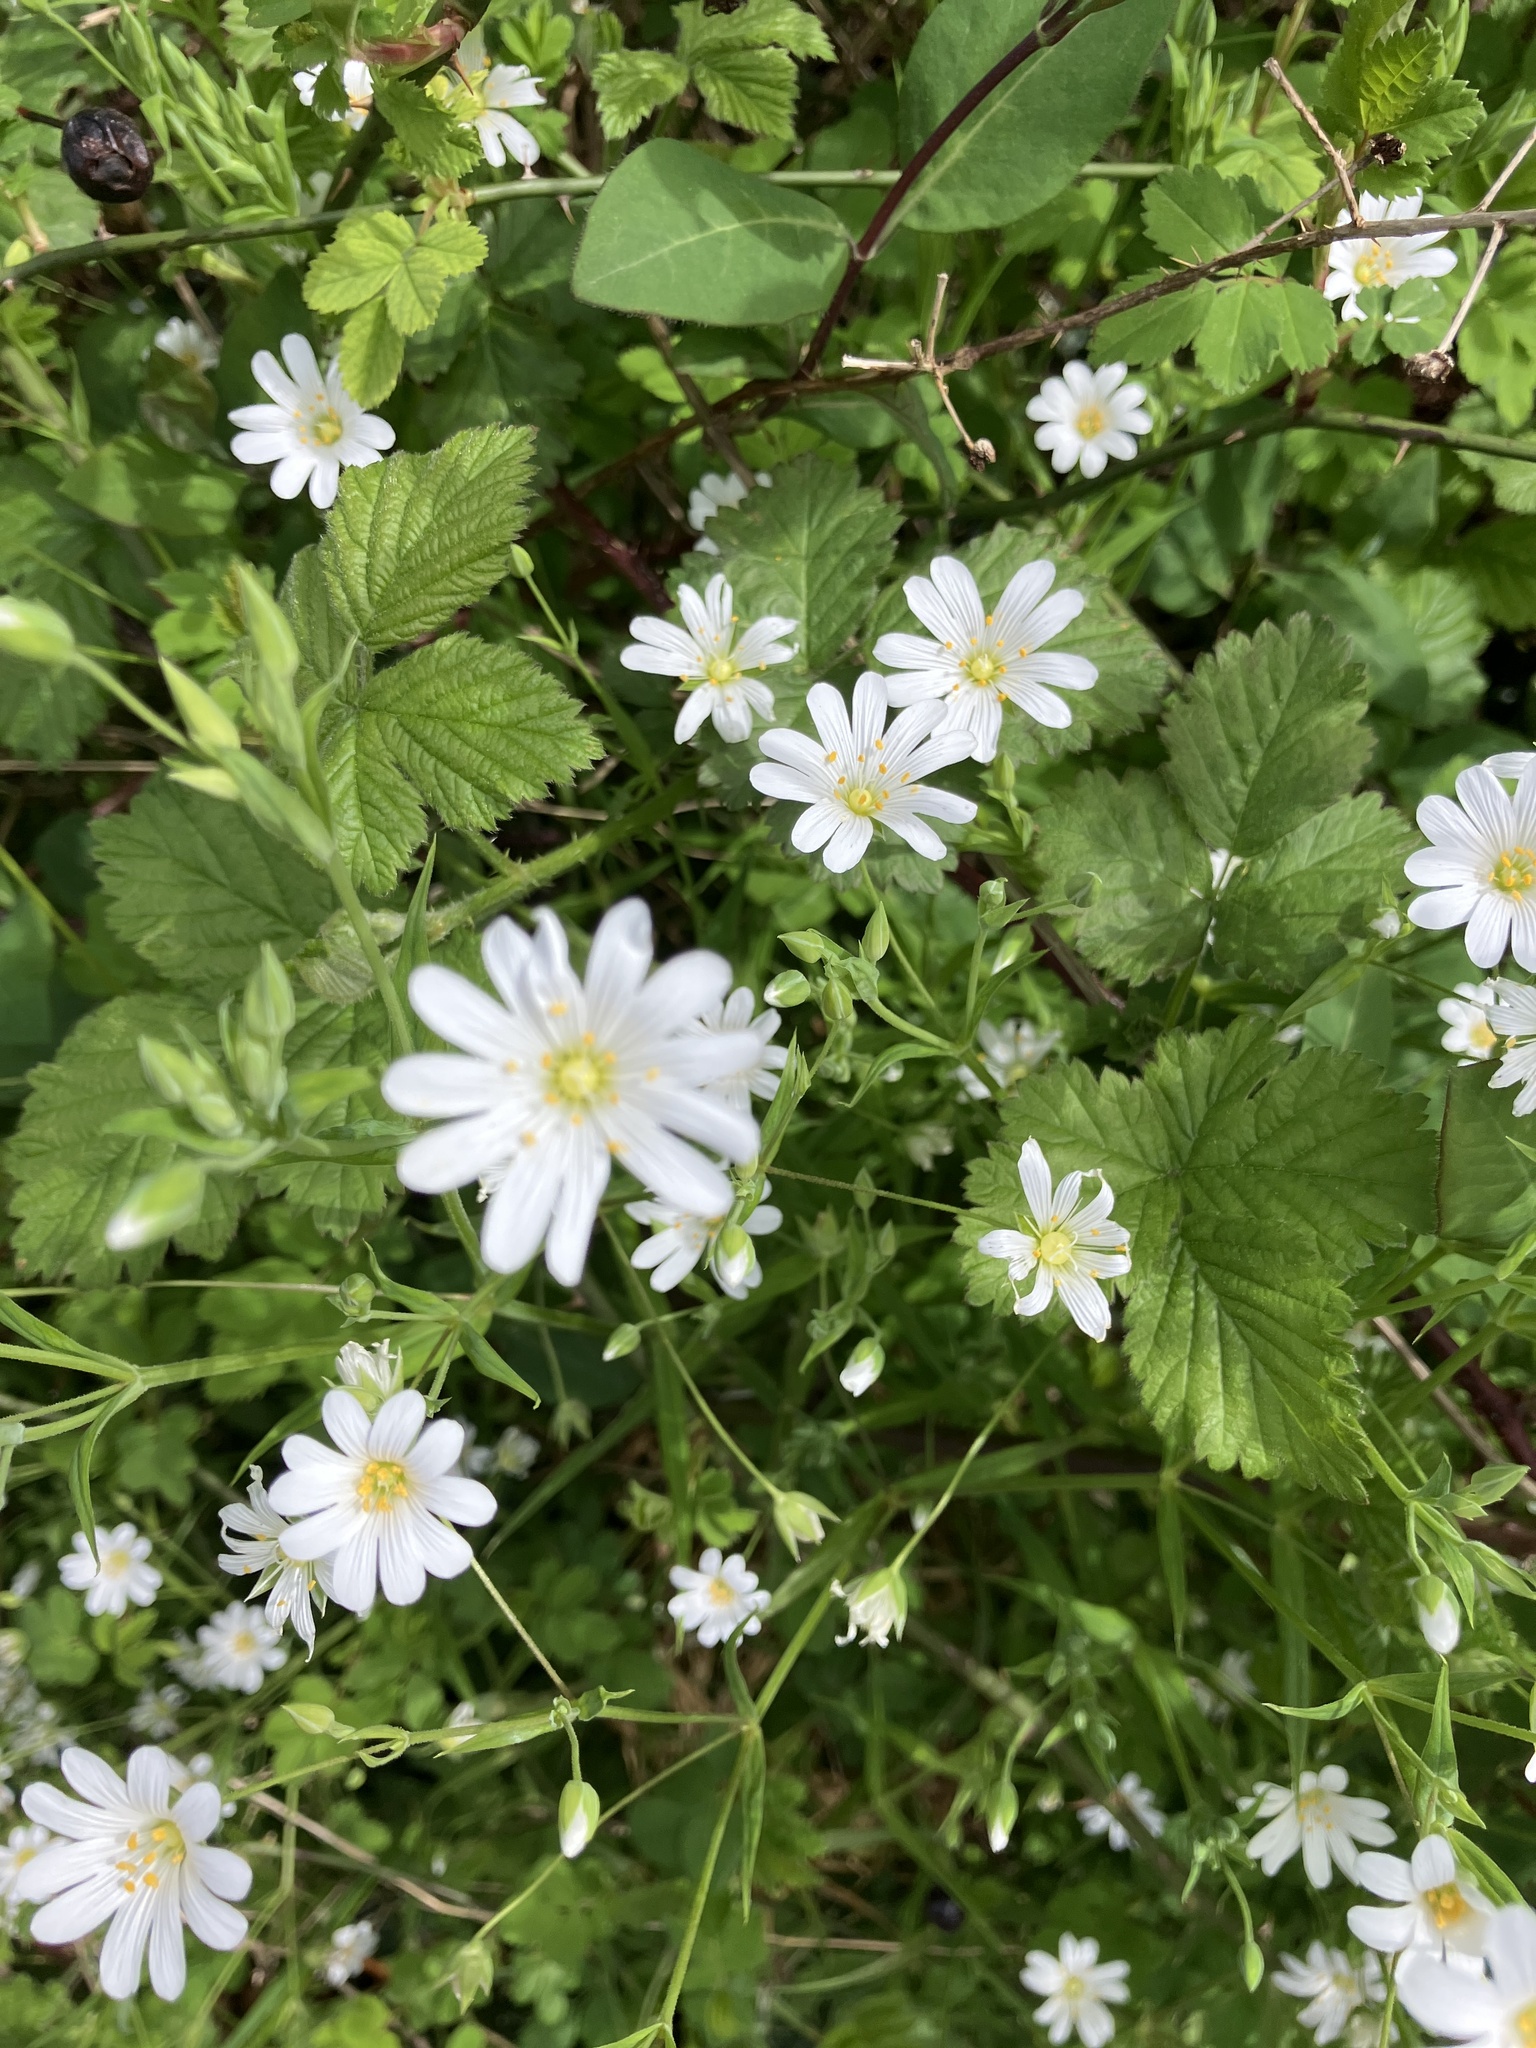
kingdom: Plantae
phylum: Tracheophyta
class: Magnoliopsida
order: Caryophyllales
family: Caryophyllaceae
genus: Rabelera
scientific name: Rabelera holostea
